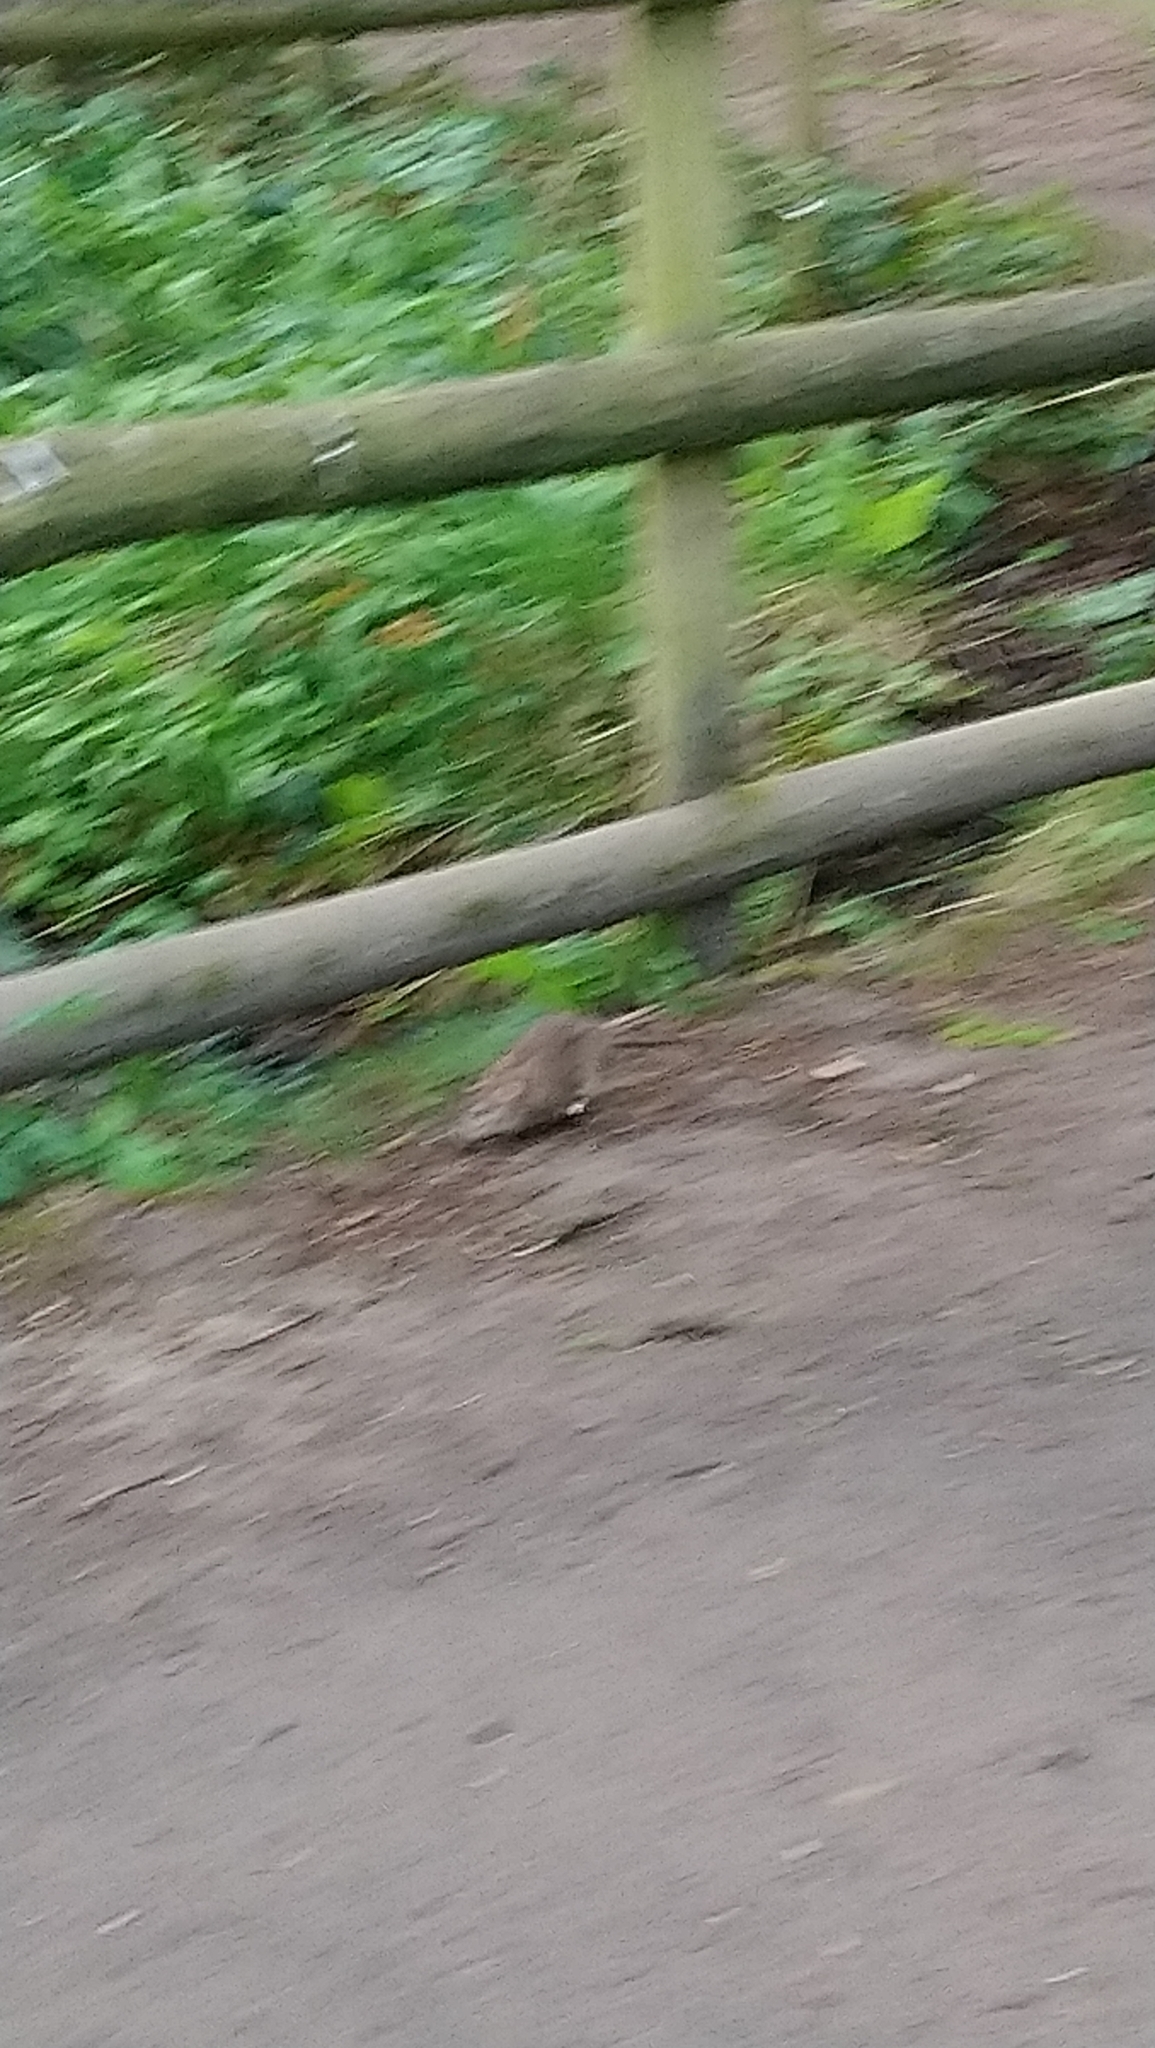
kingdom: Animalia
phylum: Chordata
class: Mammalia
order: Rodentia
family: Muridae
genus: Rattus
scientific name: Rattus norvegicus
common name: Brown rat
